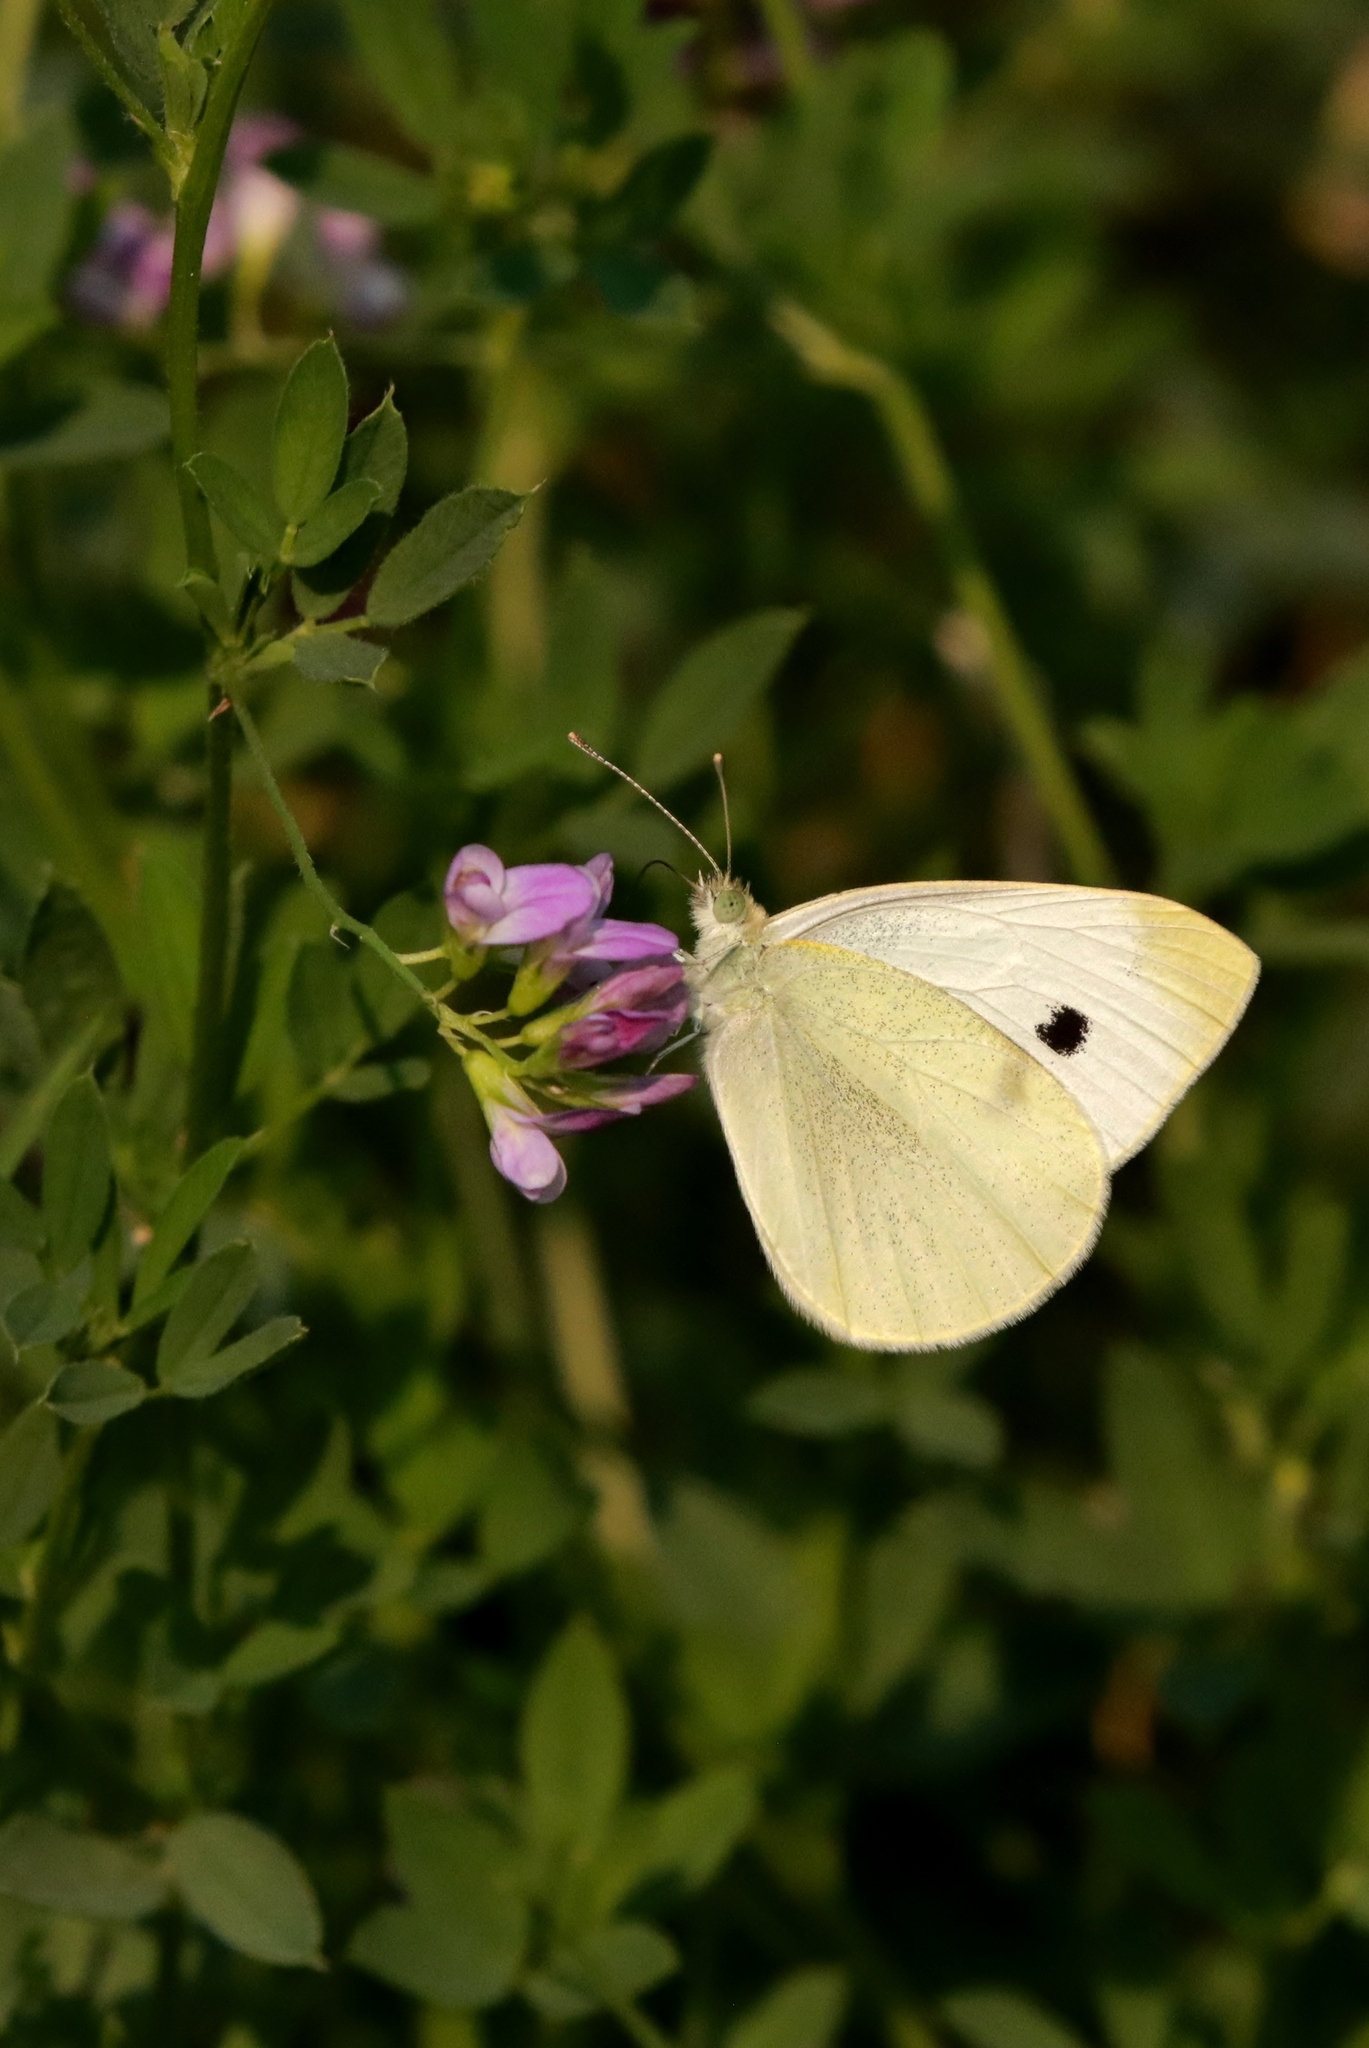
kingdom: Animalia
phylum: Arthropoda
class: Insecta
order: Lepidoptera
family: Pieridae
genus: Pieris
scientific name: Pieris rapae
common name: Small white
